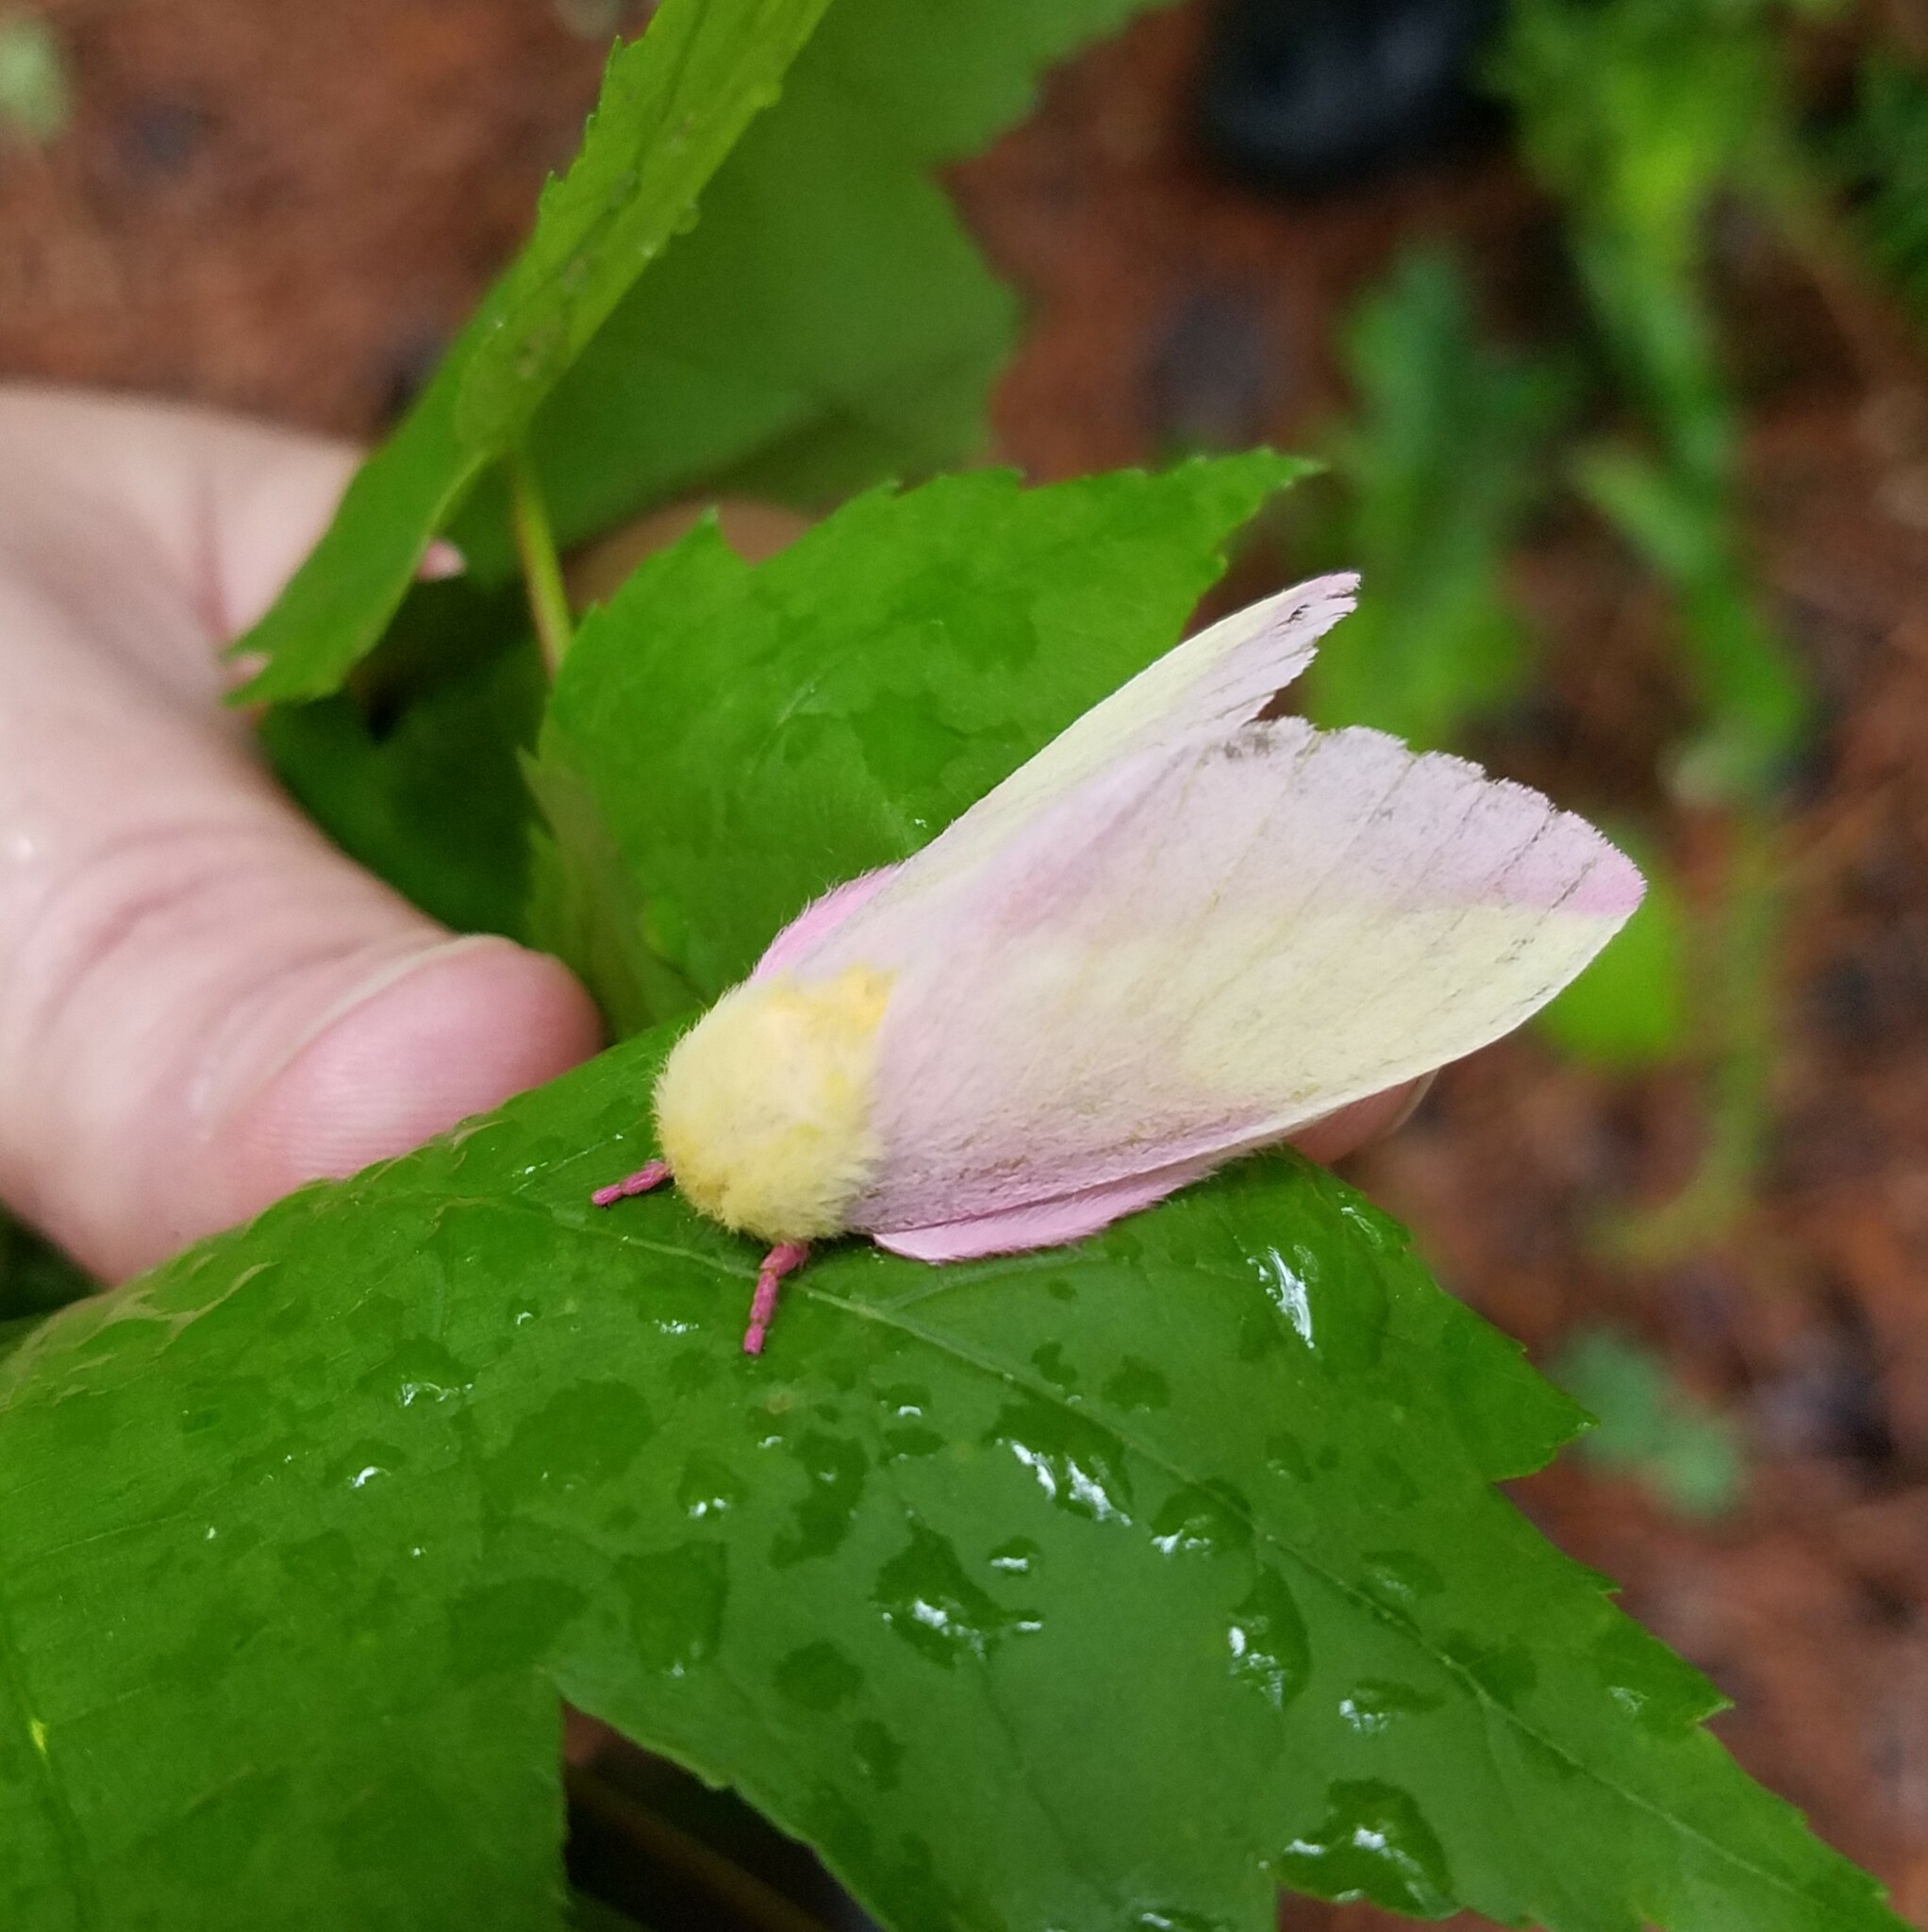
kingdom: Animalia
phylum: Arthropoda
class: Insecta
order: Lepidoptera
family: Saturniidae
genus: Dryocampa
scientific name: Dryocampa rubicunda
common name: Rosy maple moth
